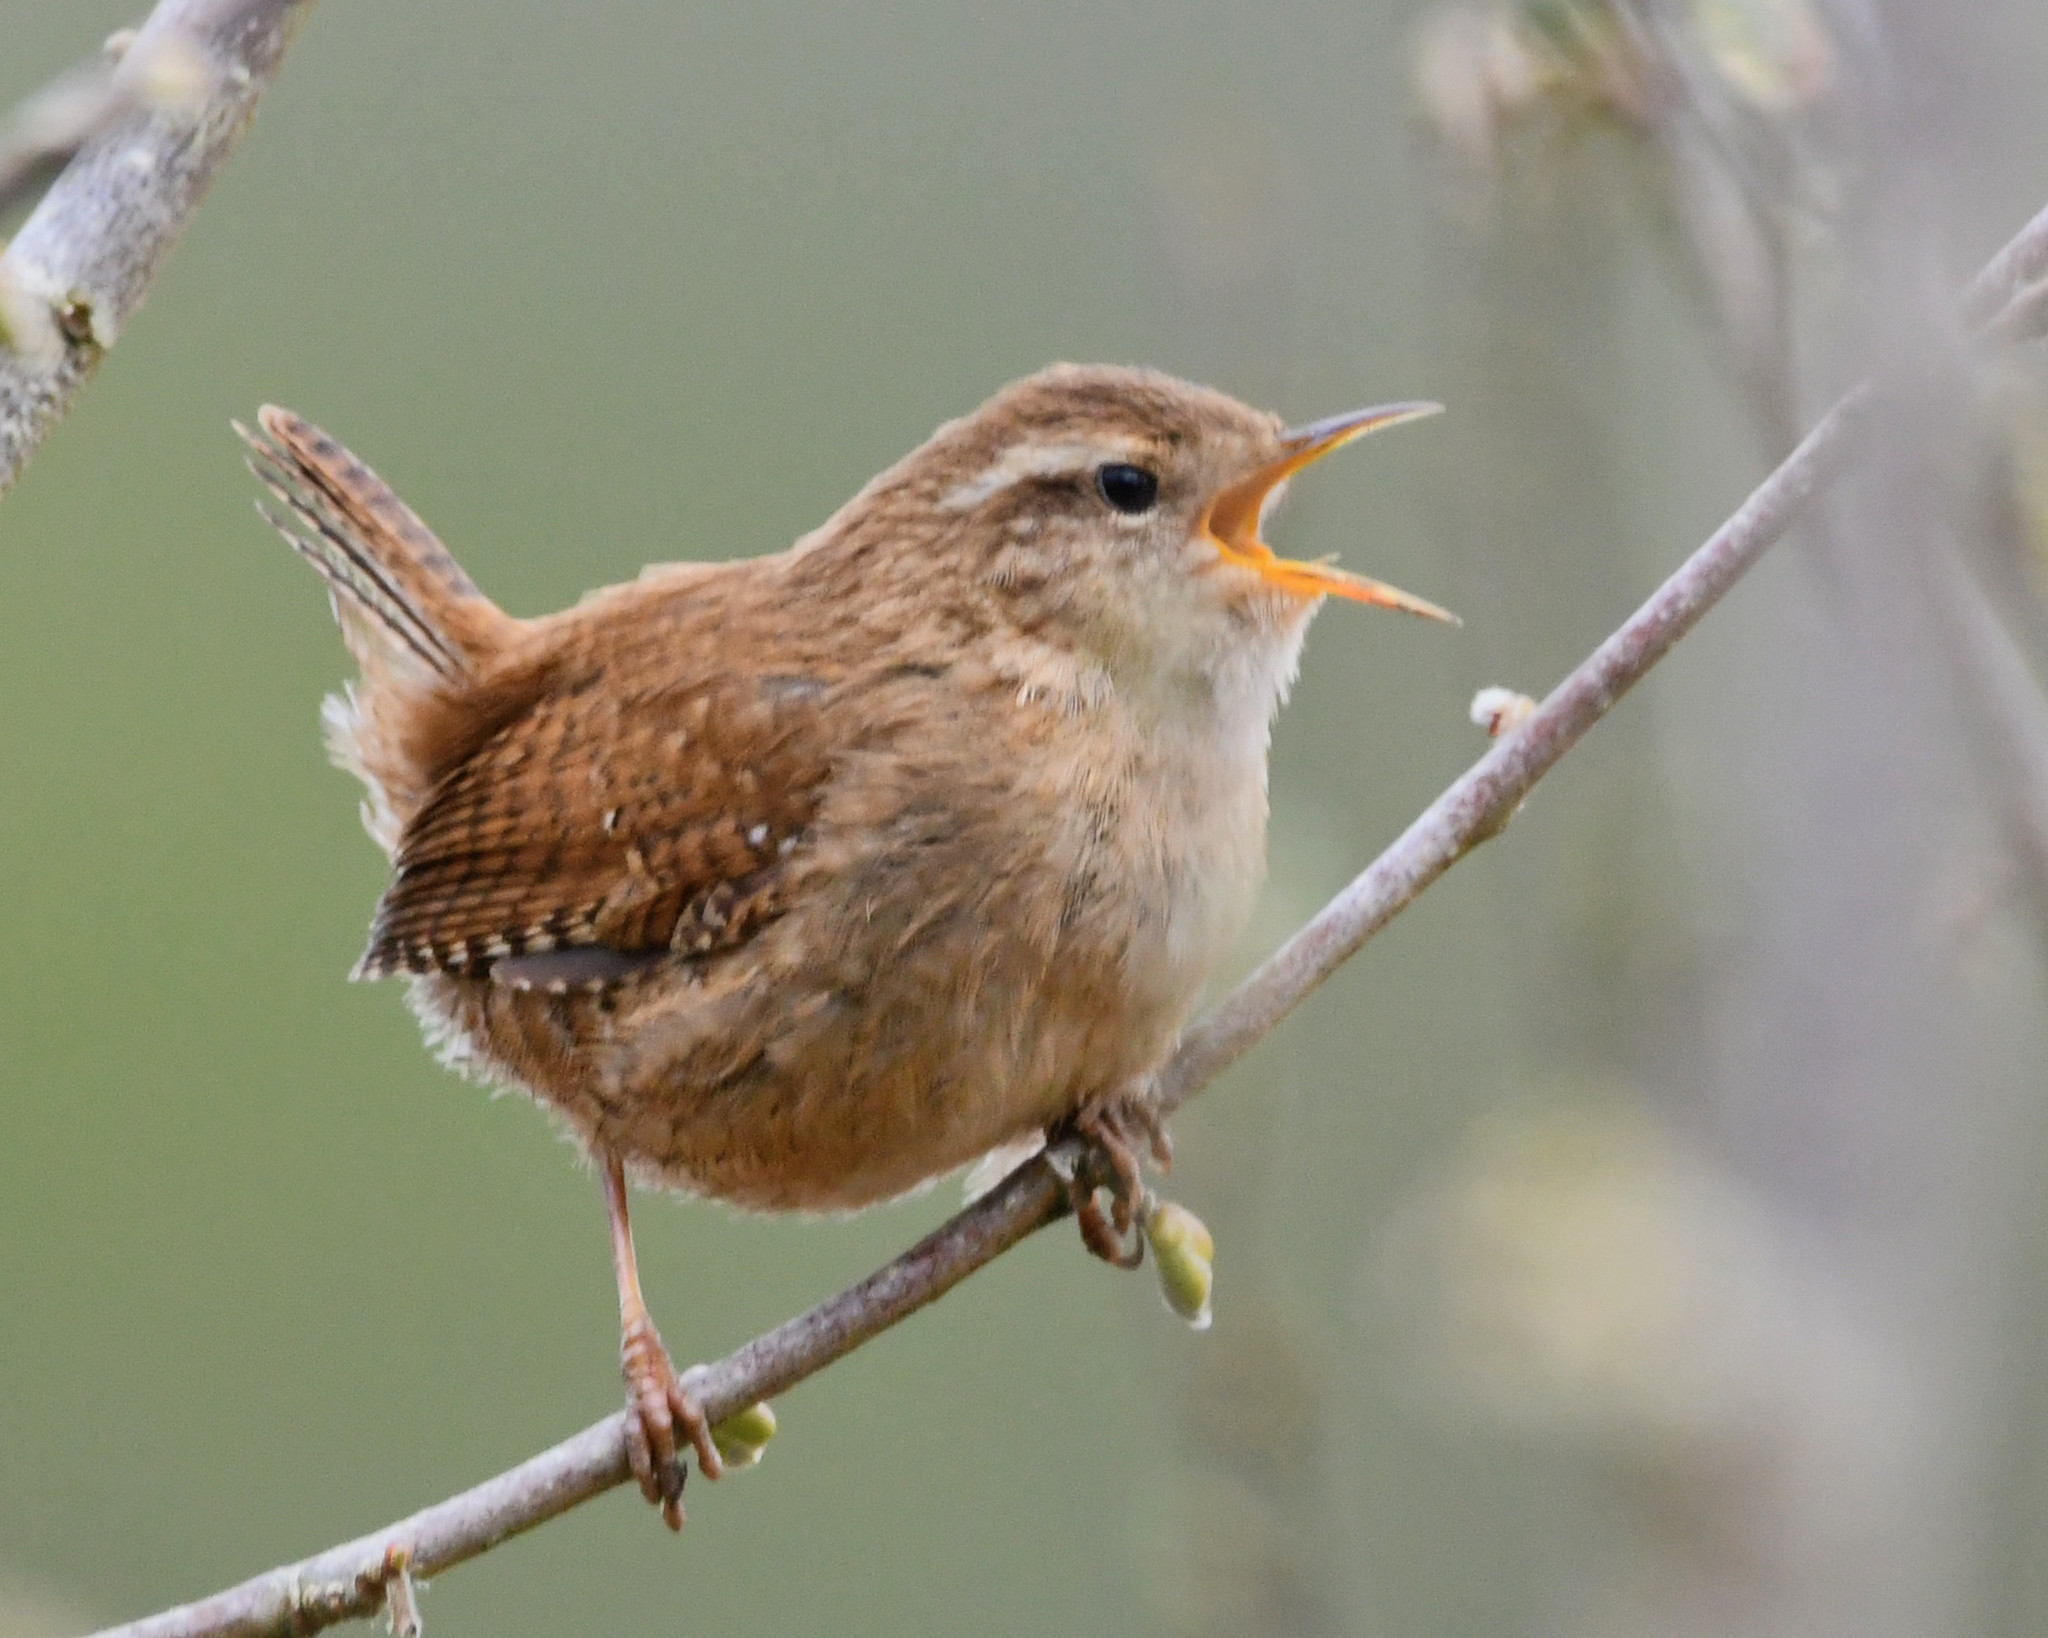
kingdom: Animalia
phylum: Chordata
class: Aves
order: Passeriformes
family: Troglodytidae
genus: Troglodytes
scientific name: Troglodytes troglodytes
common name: Eurasian wren
